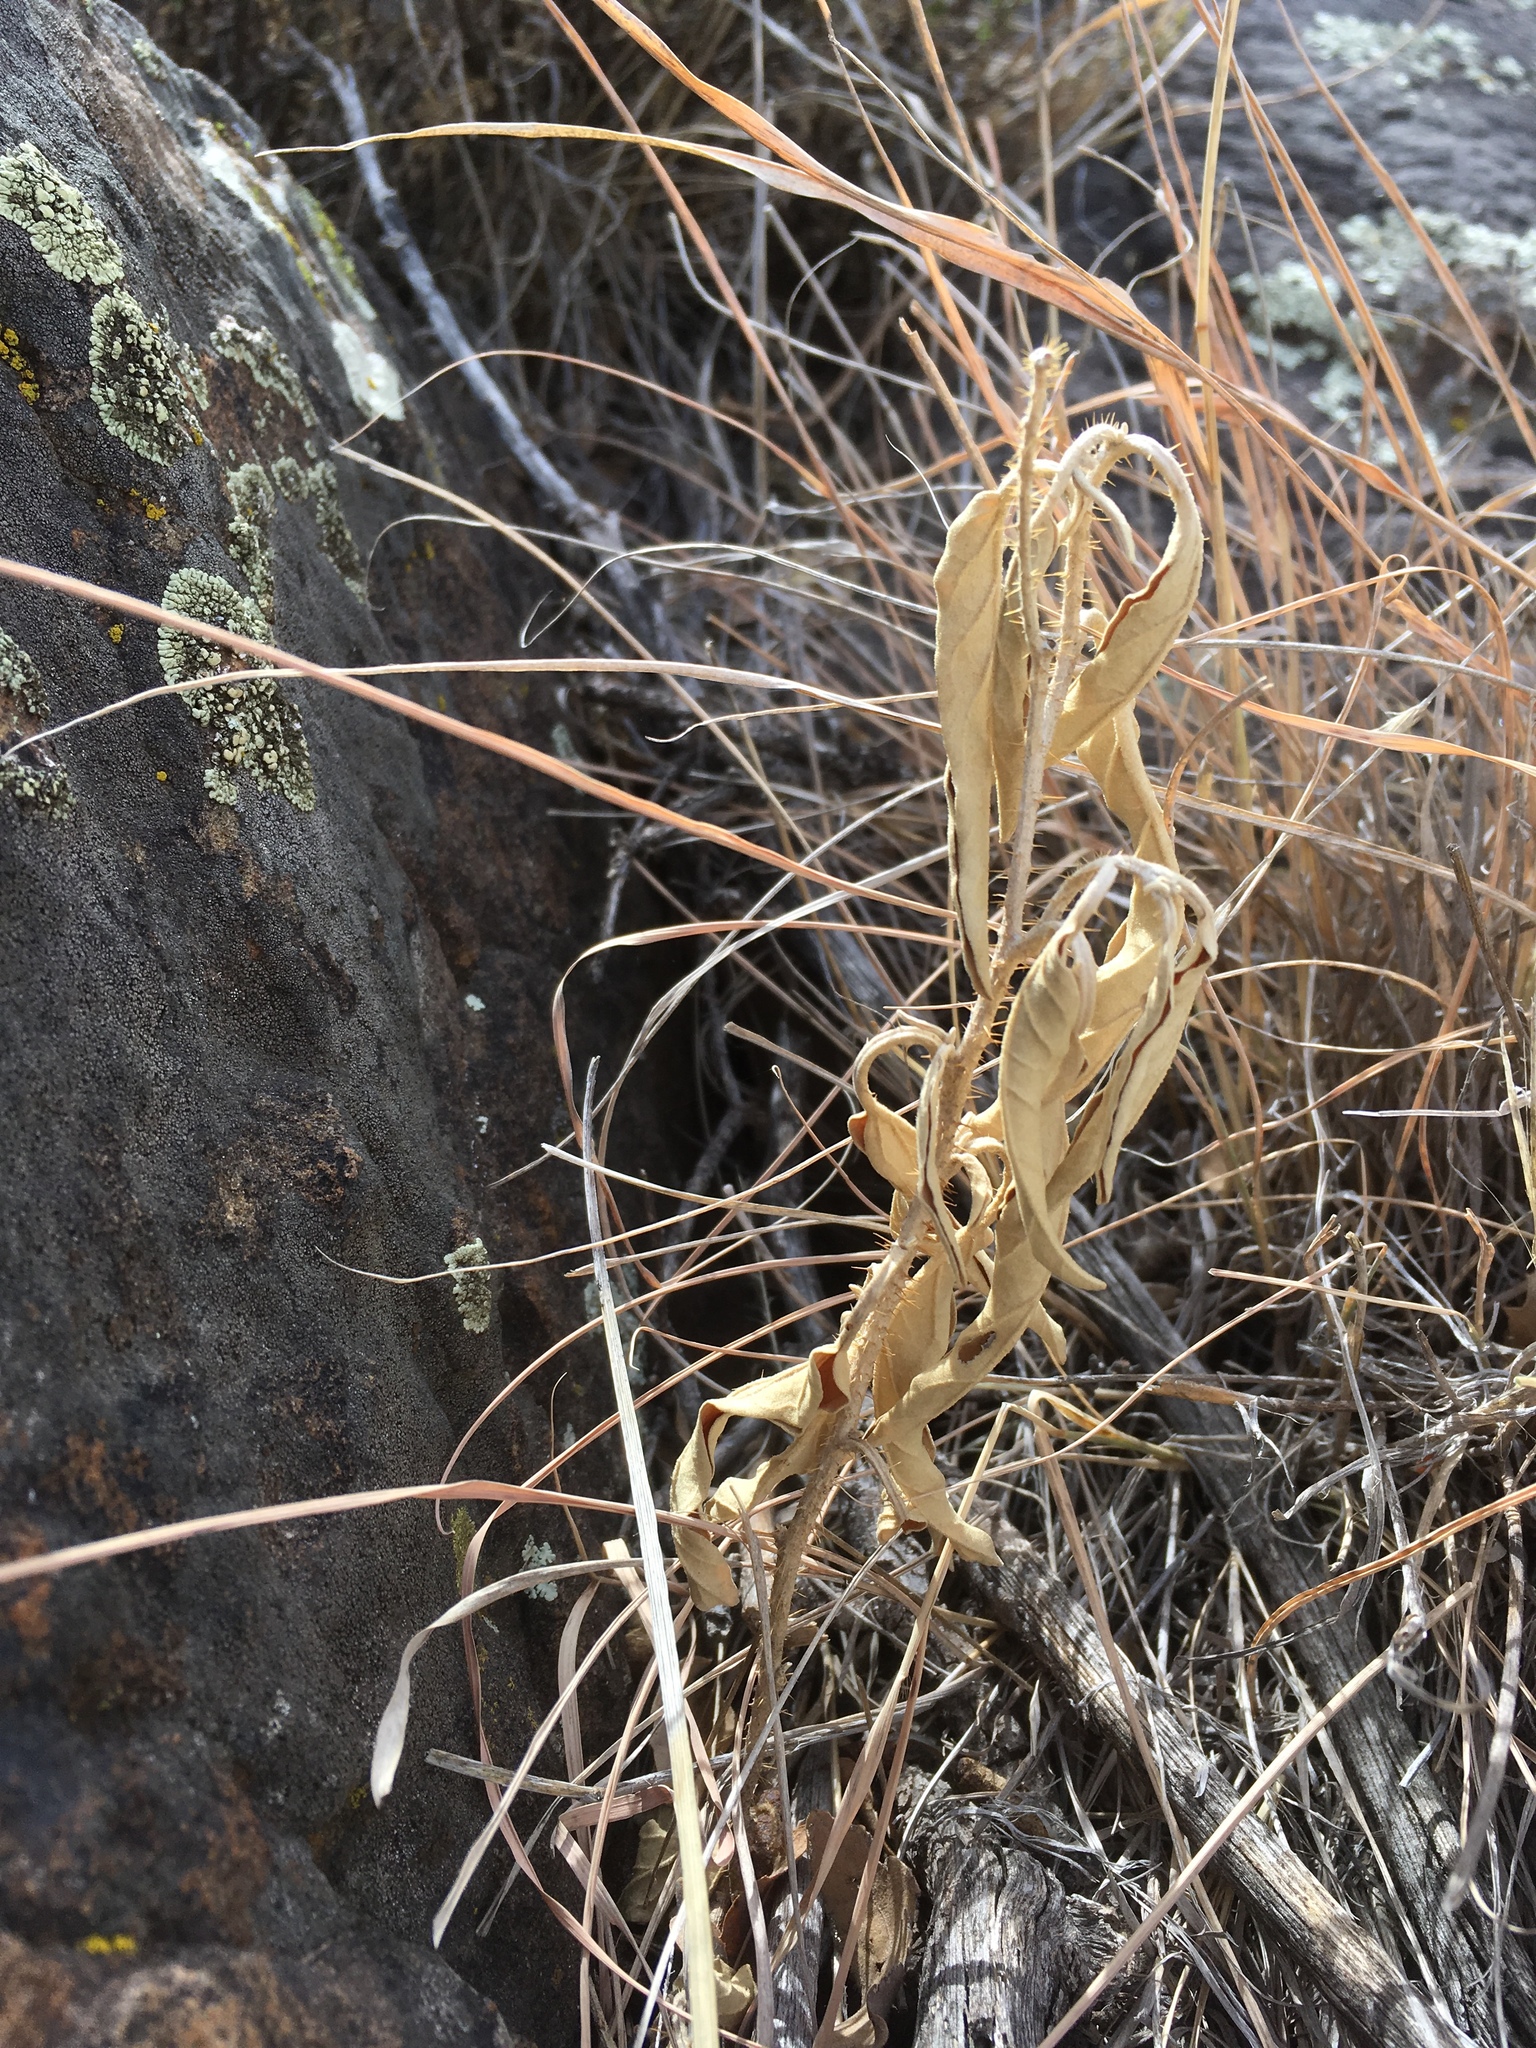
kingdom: Plantae
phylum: Tracheophyta
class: Magnoliopsida
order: Solanales
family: Solanaceae
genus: Solanum
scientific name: Solanum elaeagnifolium
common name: Silverleaf nightshade
